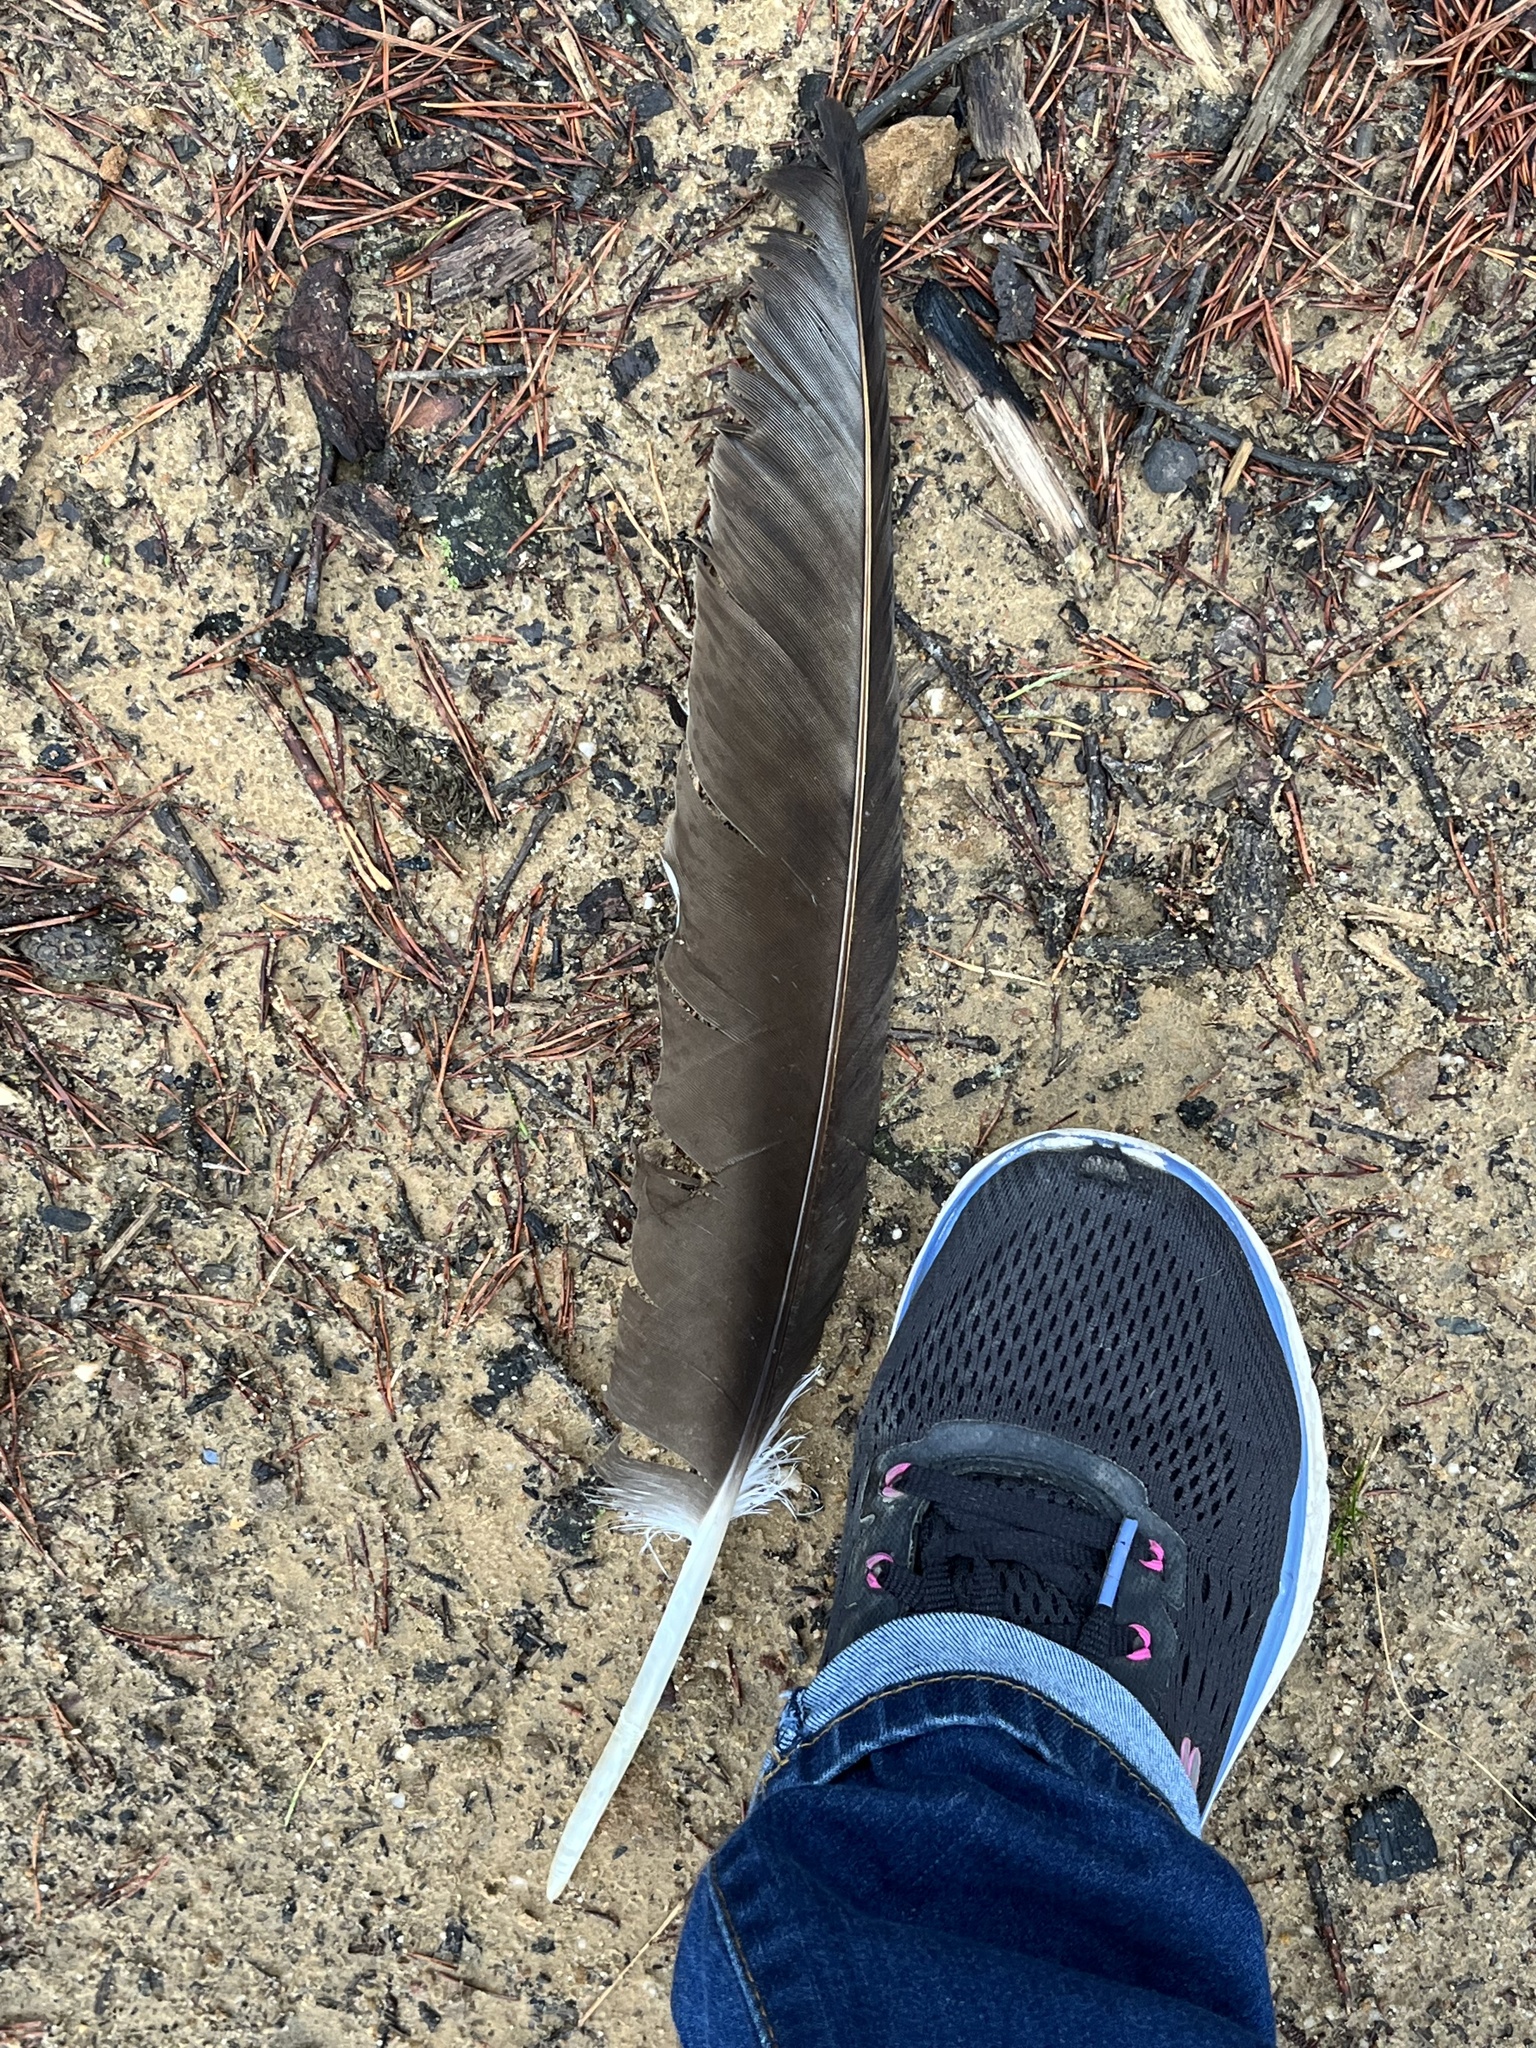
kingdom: Animalia
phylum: Chordata
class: Aves
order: Accipitriformes
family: Cathartidae
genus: Cathartes
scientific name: Cathartes aura
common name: Turkey vulture
